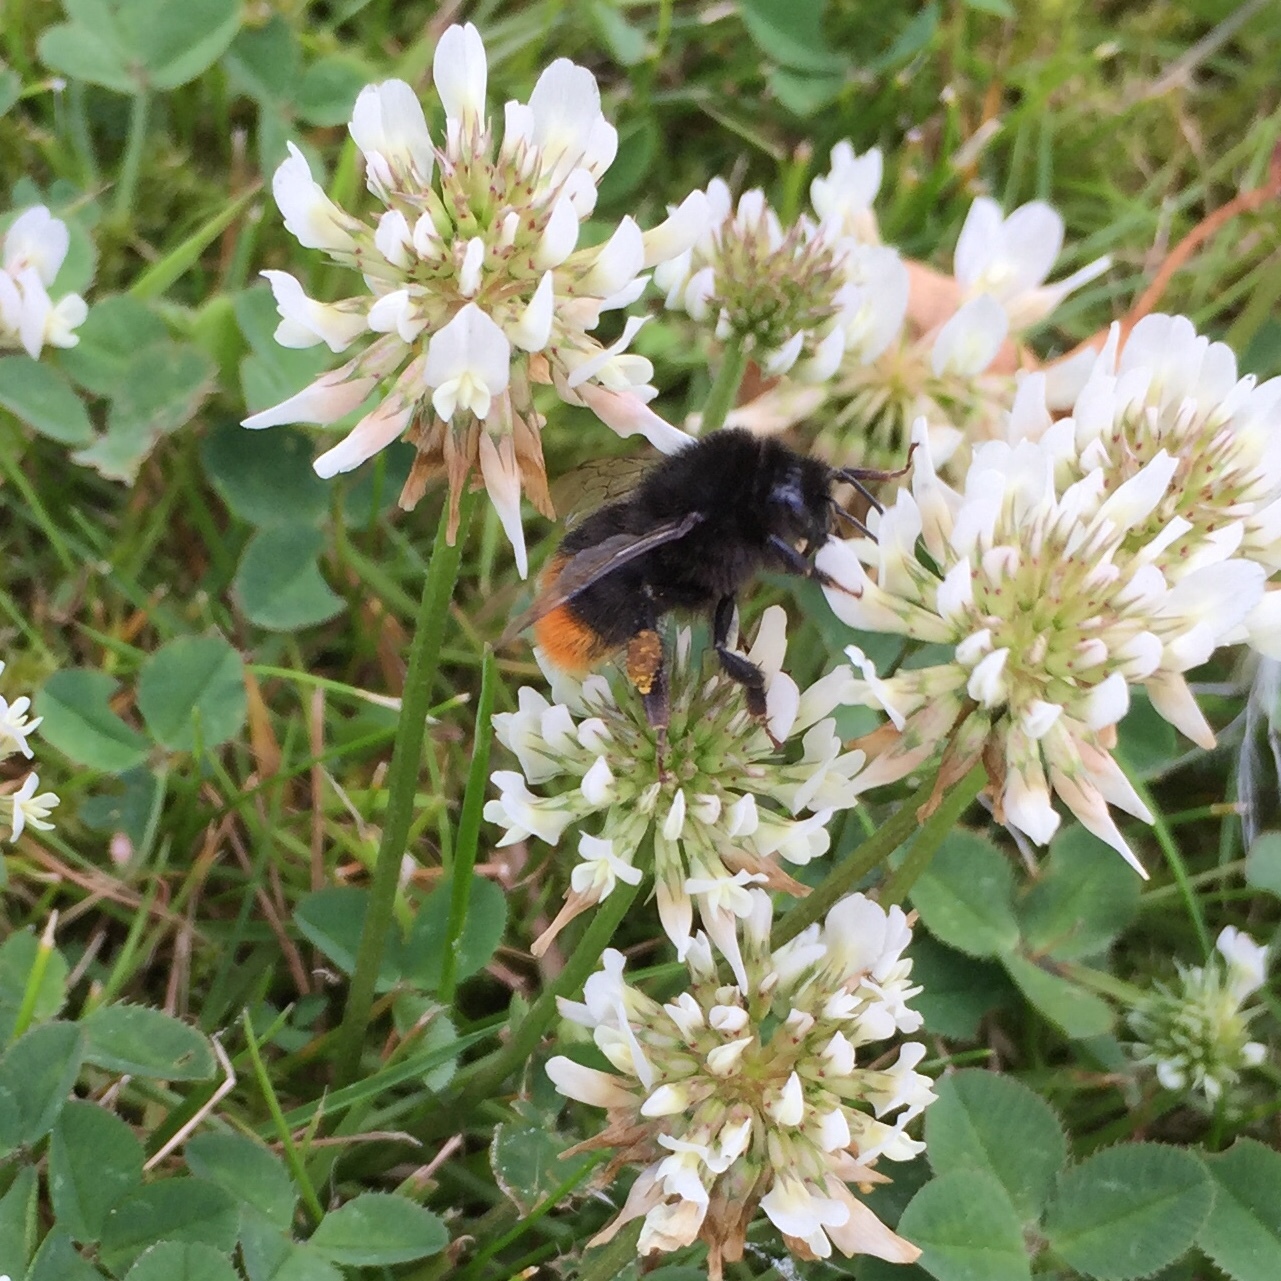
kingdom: Animalia
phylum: Arthropoda
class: Insecta
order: Hymenoptera
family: Apidae
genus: Bombus
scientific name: Bombus lapidarius
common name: Large red-tailed humble-bee
